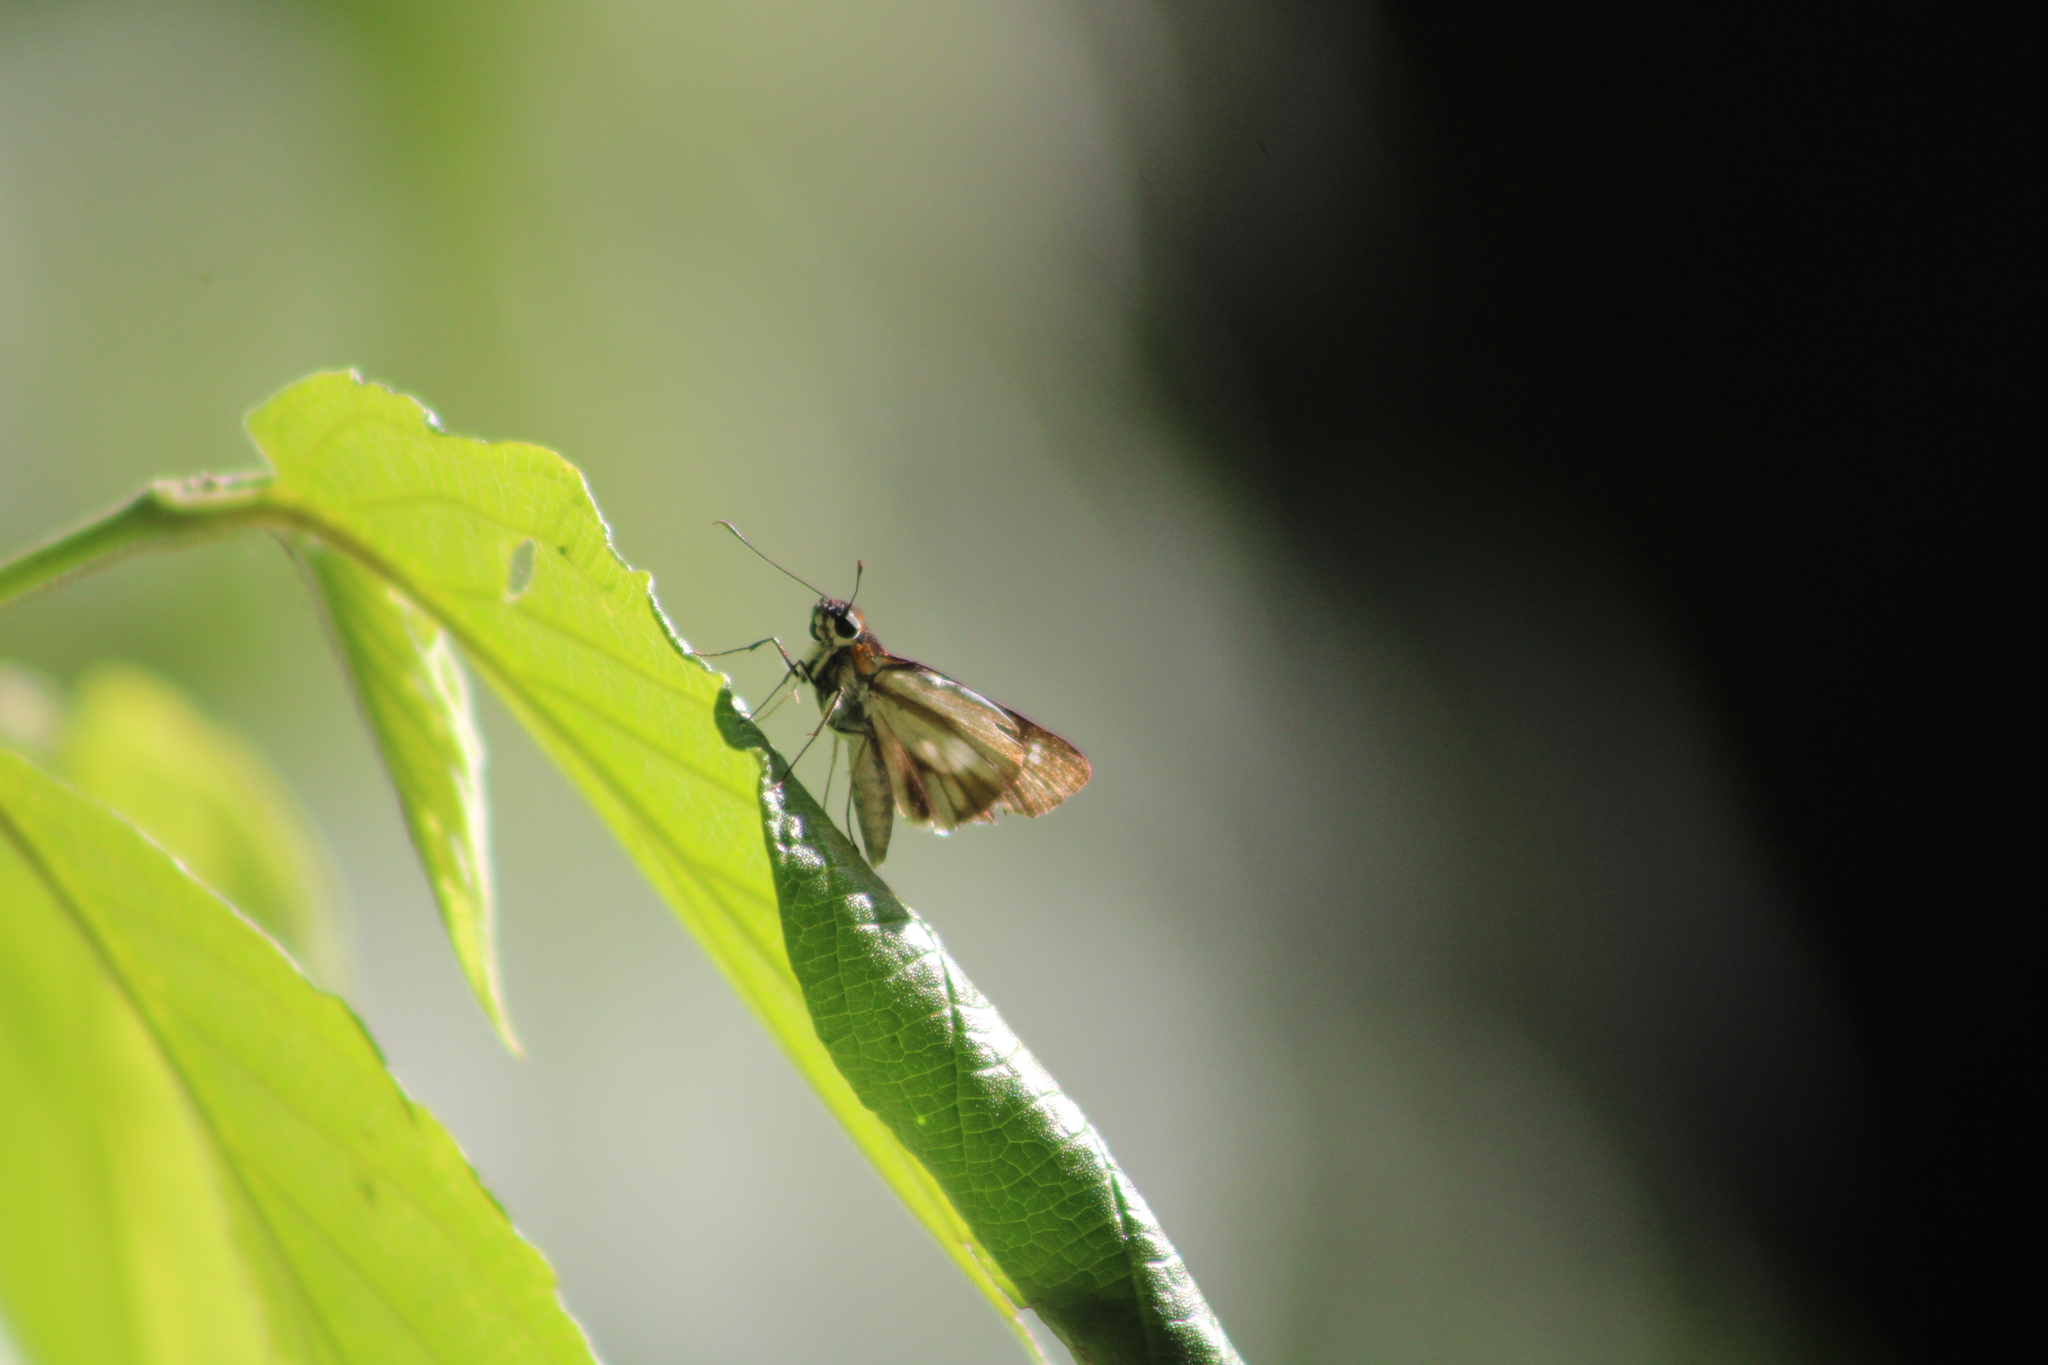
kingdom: Animalia
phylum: Arthropoda
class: Insecta
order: Lepidoptera
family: Hesperiidae
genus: Troyus
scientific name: Troyus
